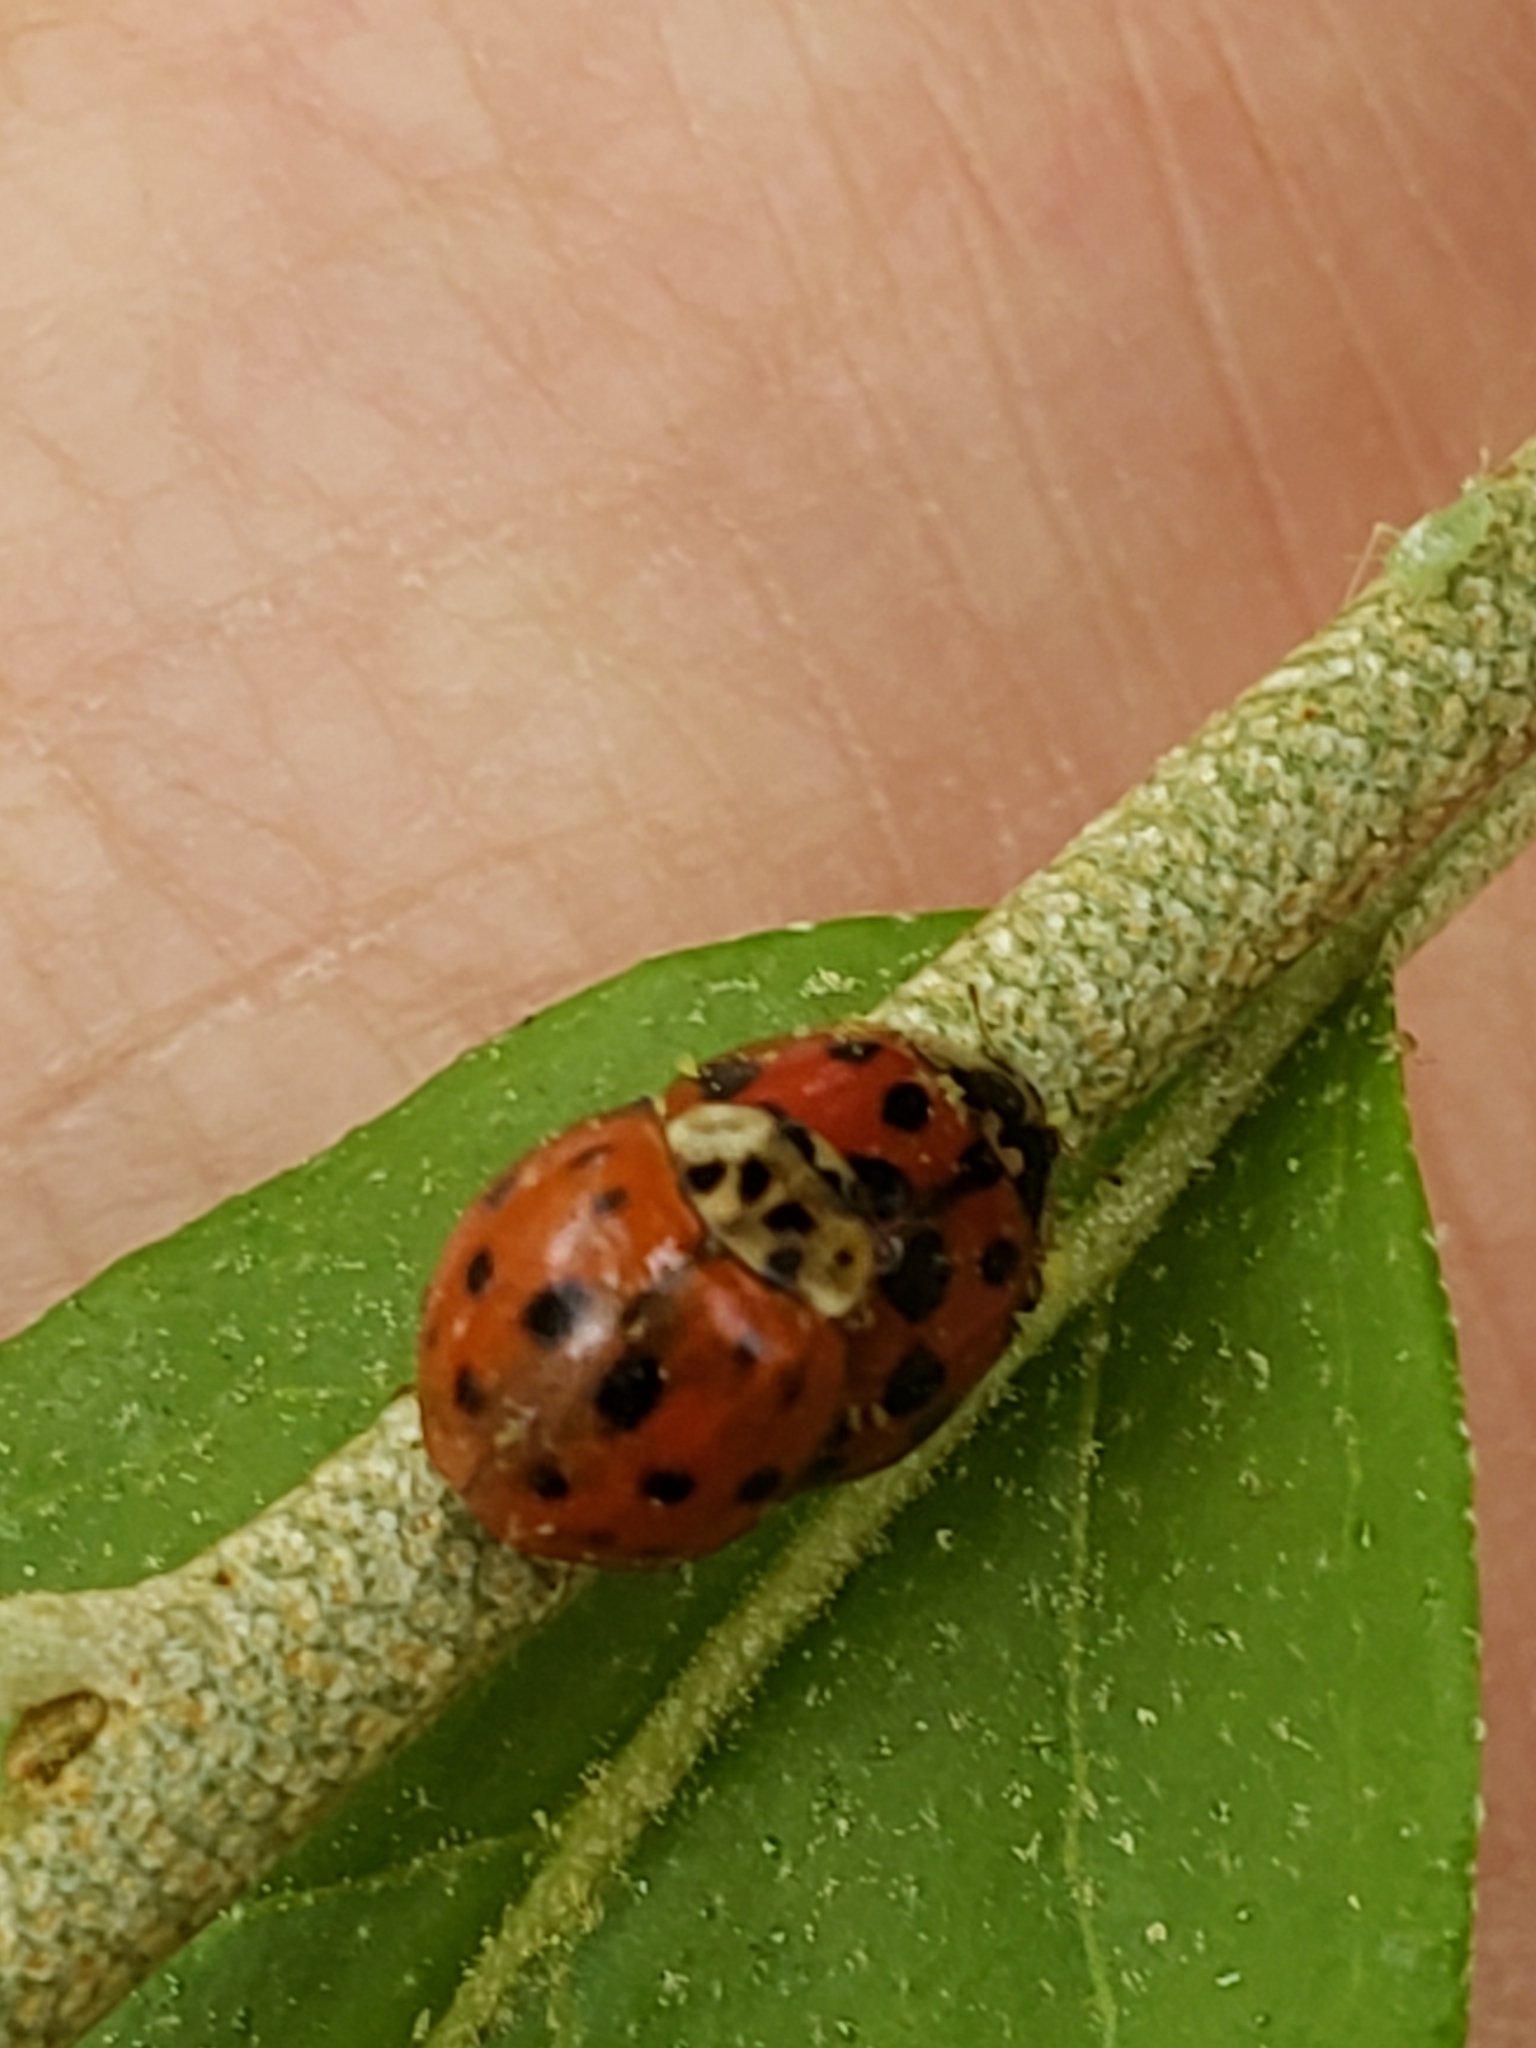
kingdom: Animalia
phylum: Arthropoda
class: Insecta
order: Coleoptera
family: Coccinellidae
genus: Harmonia
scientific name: Harmonia axyridis
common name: Harlequin ladybird
